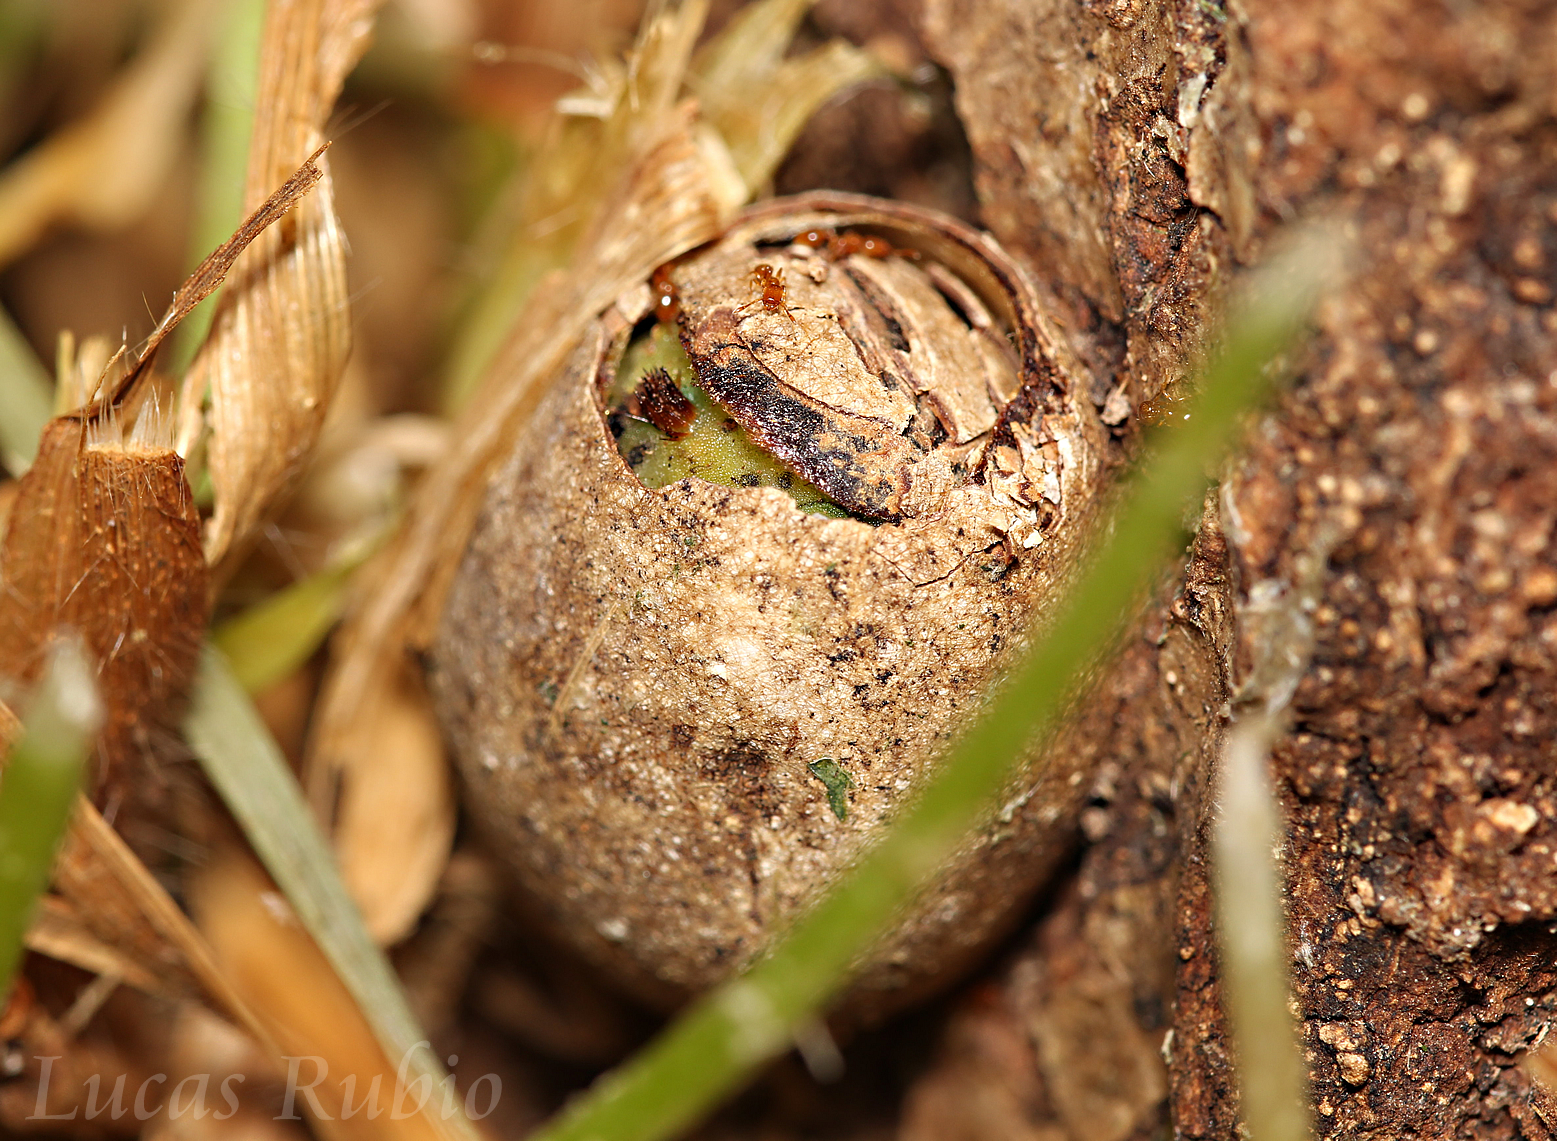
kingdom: Animalia
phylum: Arthropoda
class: Insecta
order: Lepidoptera
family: Limacodidae
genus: Acharia
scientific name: Acharia
